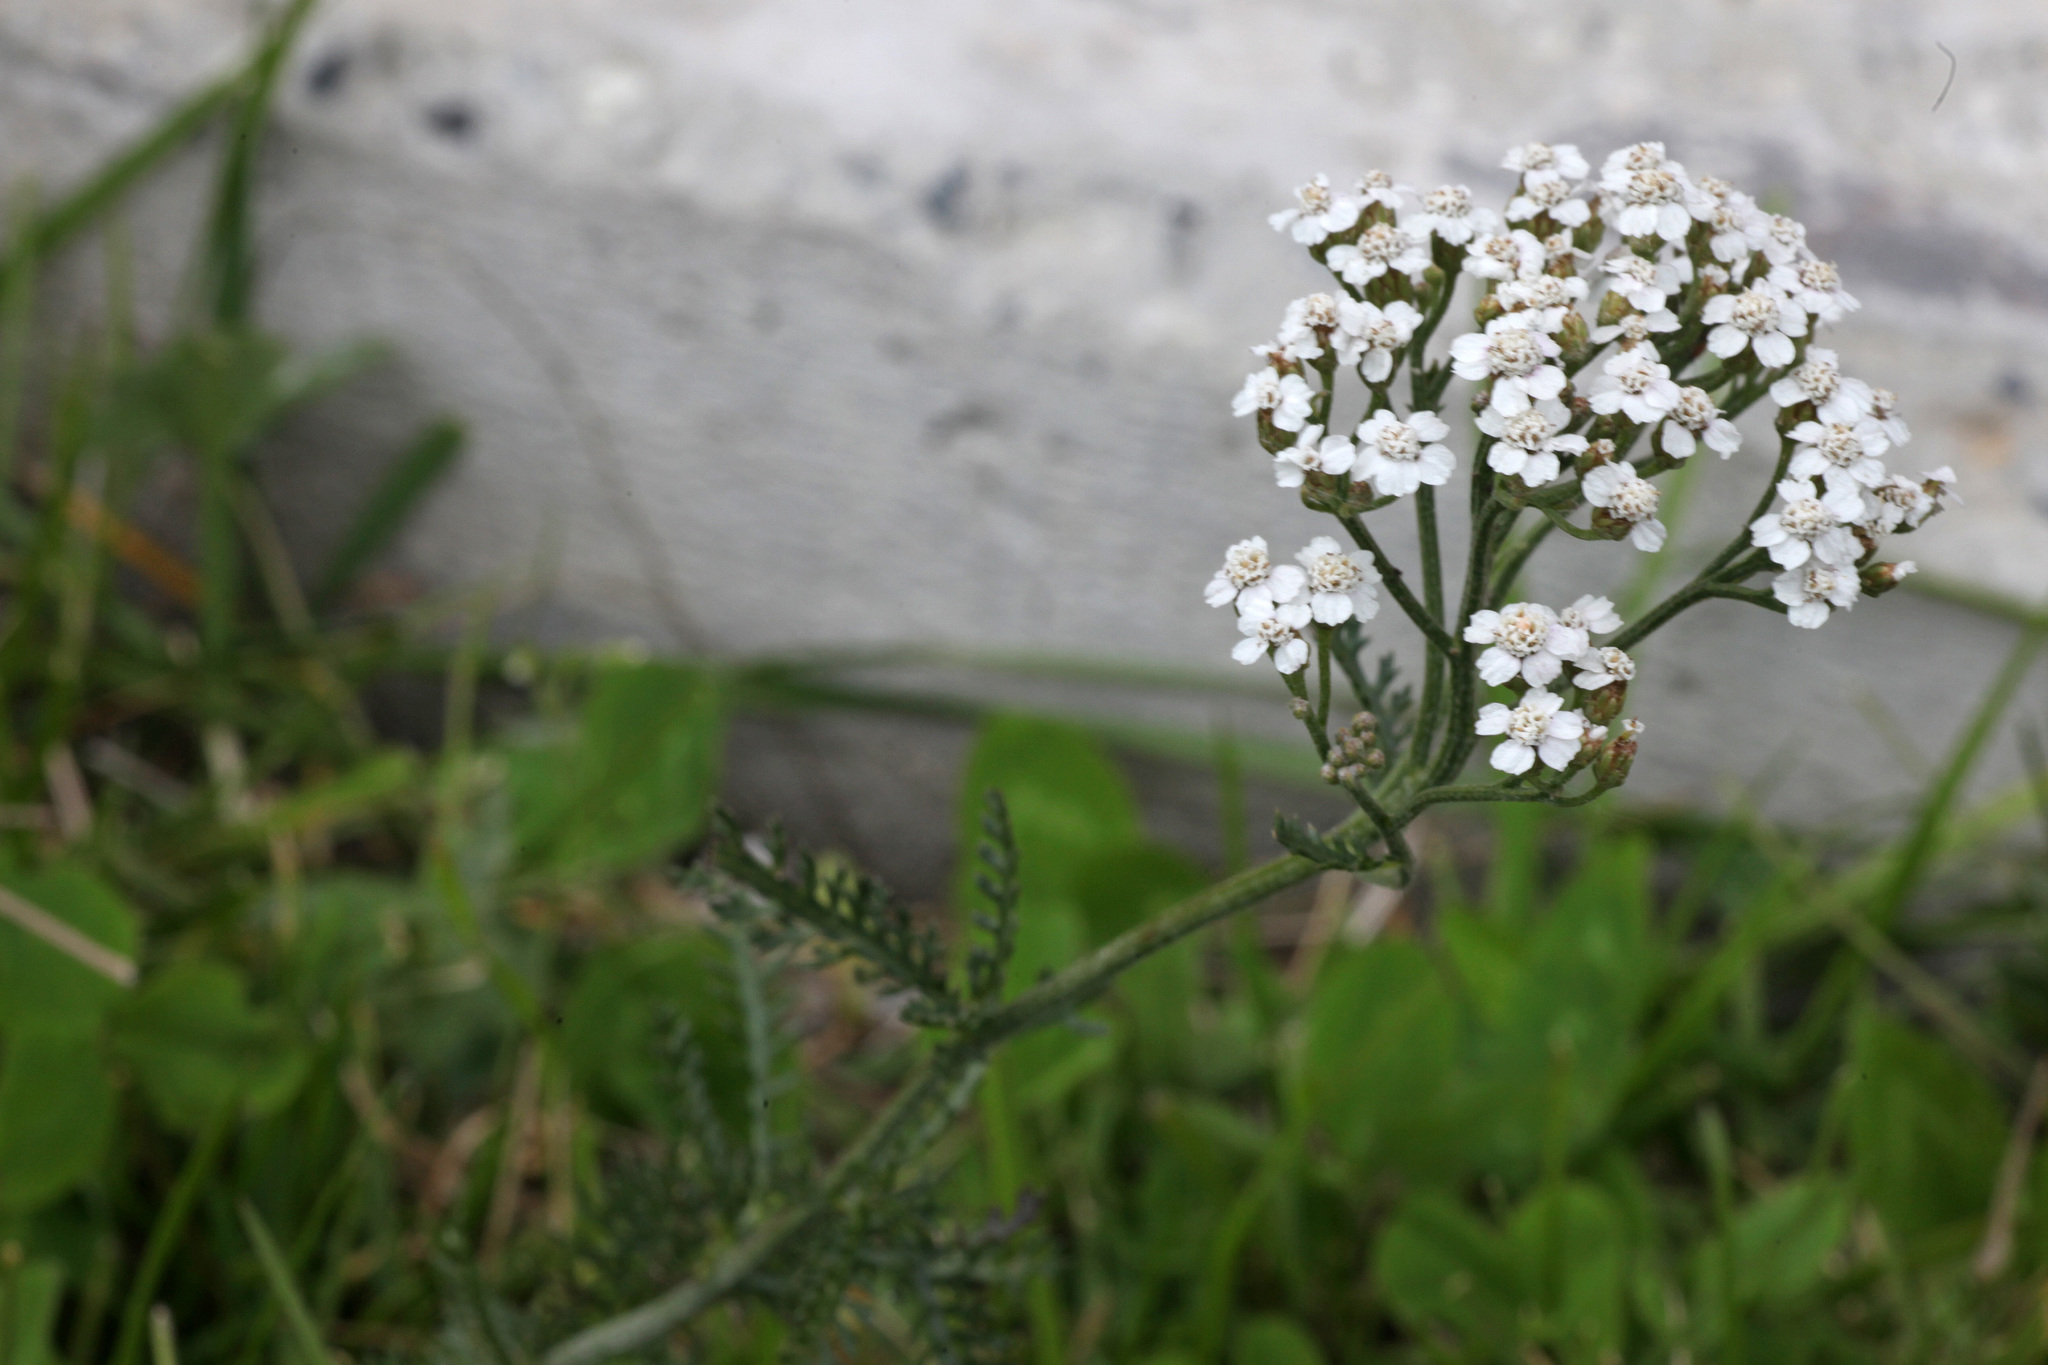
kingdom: Plantae
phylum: Tracheophyta
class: Magnoliopsida
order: Asterales
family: Asteraceae
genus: Achillea
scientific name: Achillea millefolium
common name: Yarrow
